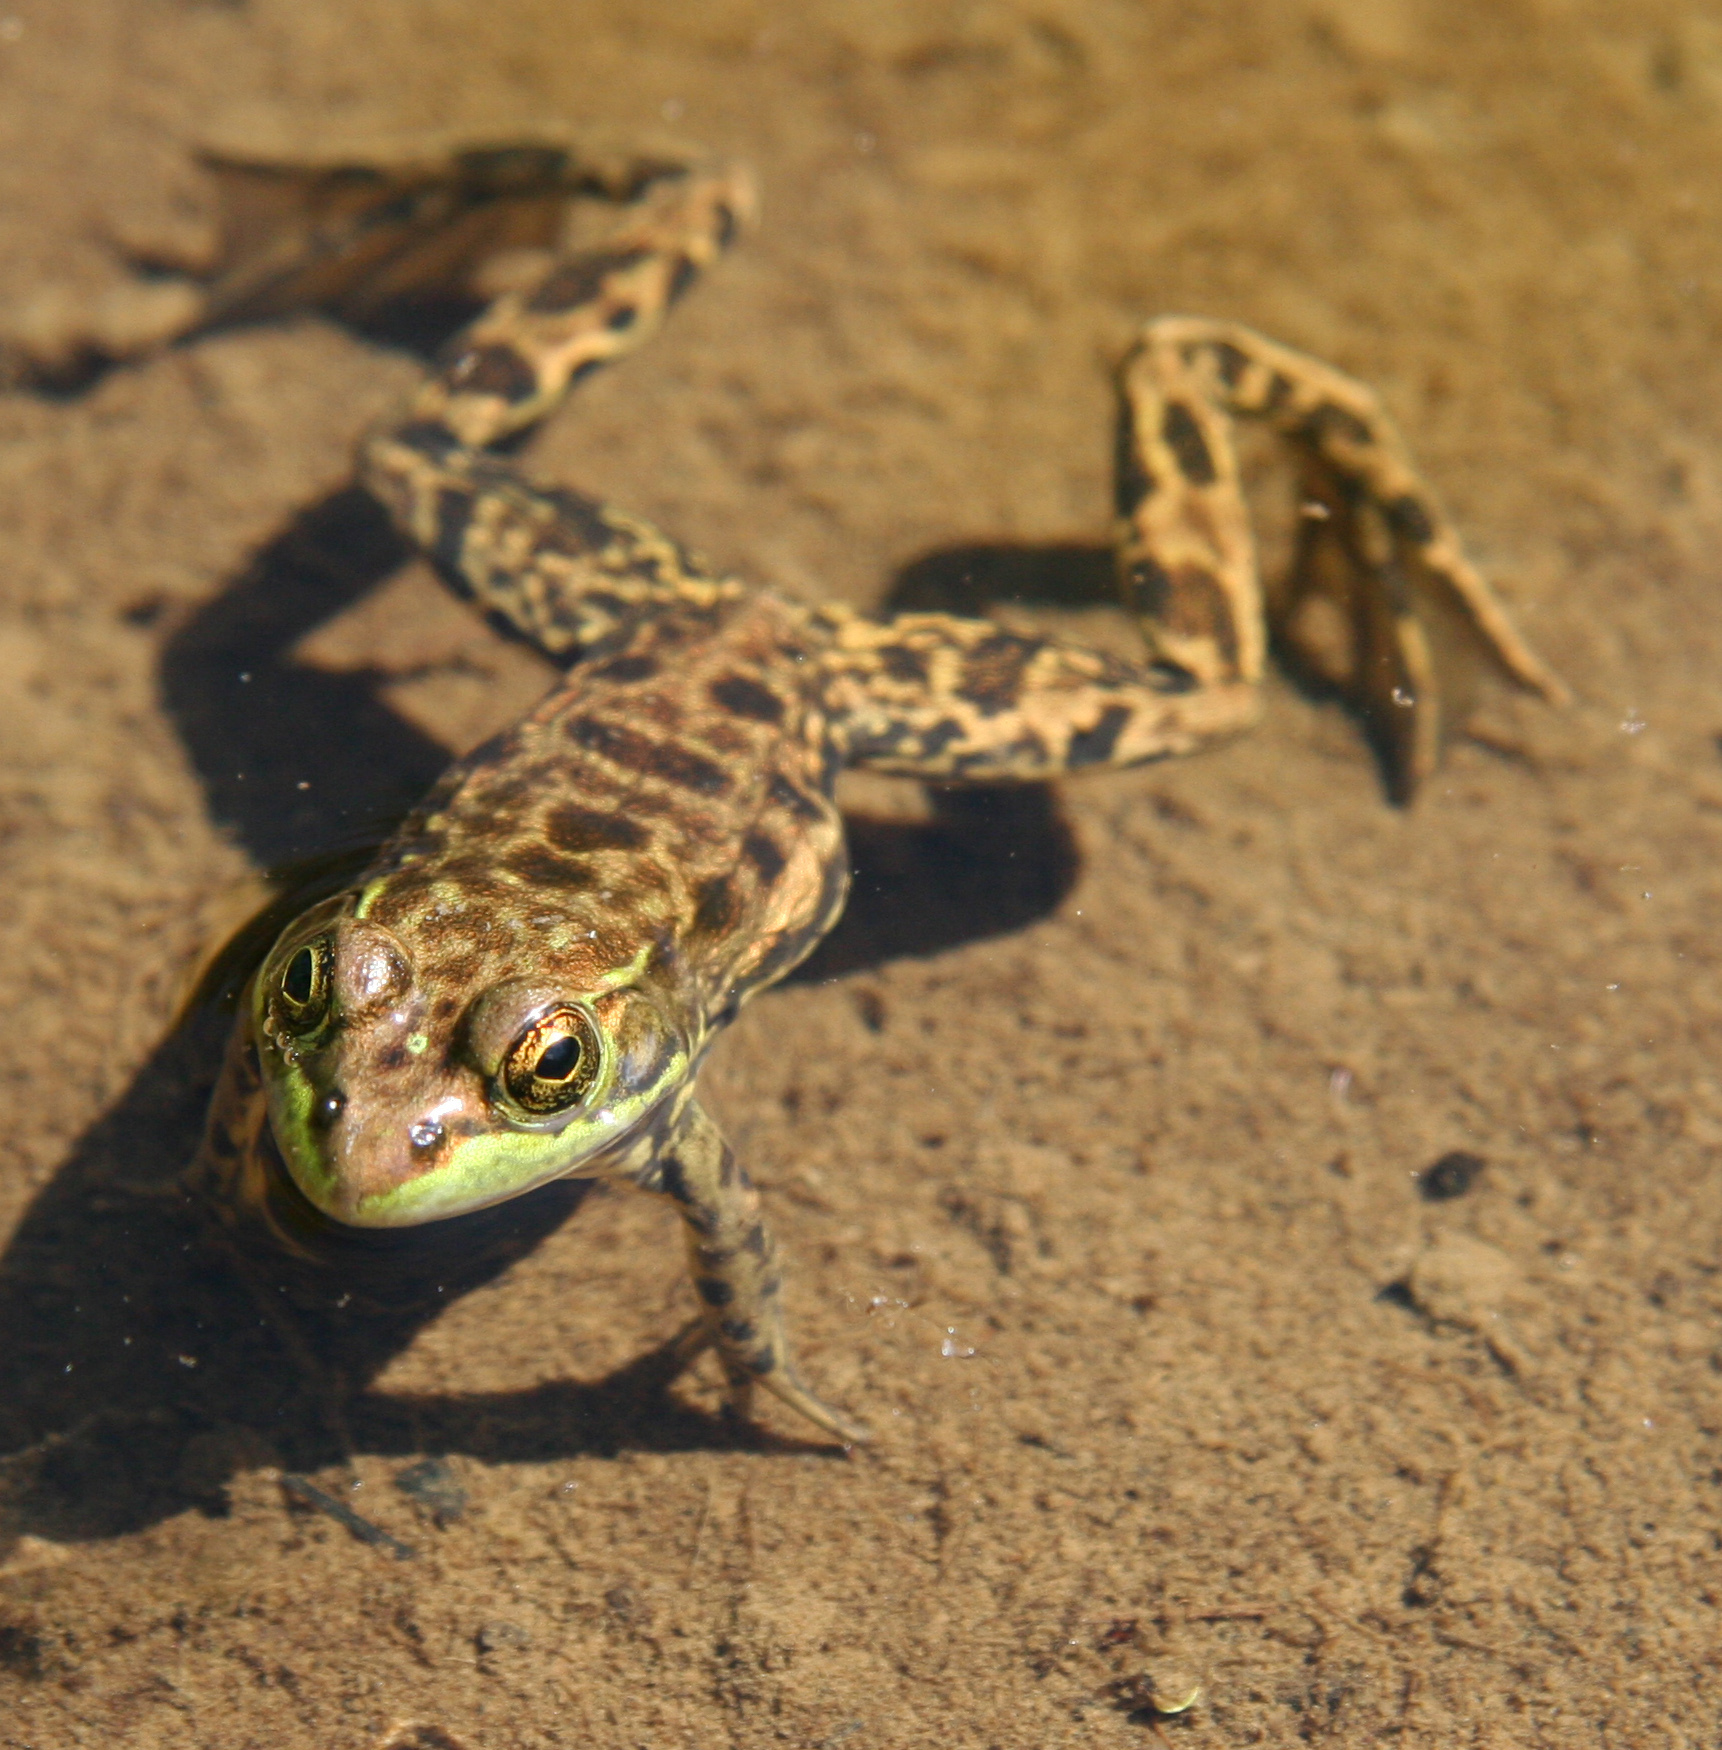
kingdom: Animalia
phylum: Chordata
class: Amphibia
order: Anura
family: Ranidae
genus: Lithobates
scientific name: Lithobates septentrionalis
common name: Mink frog
